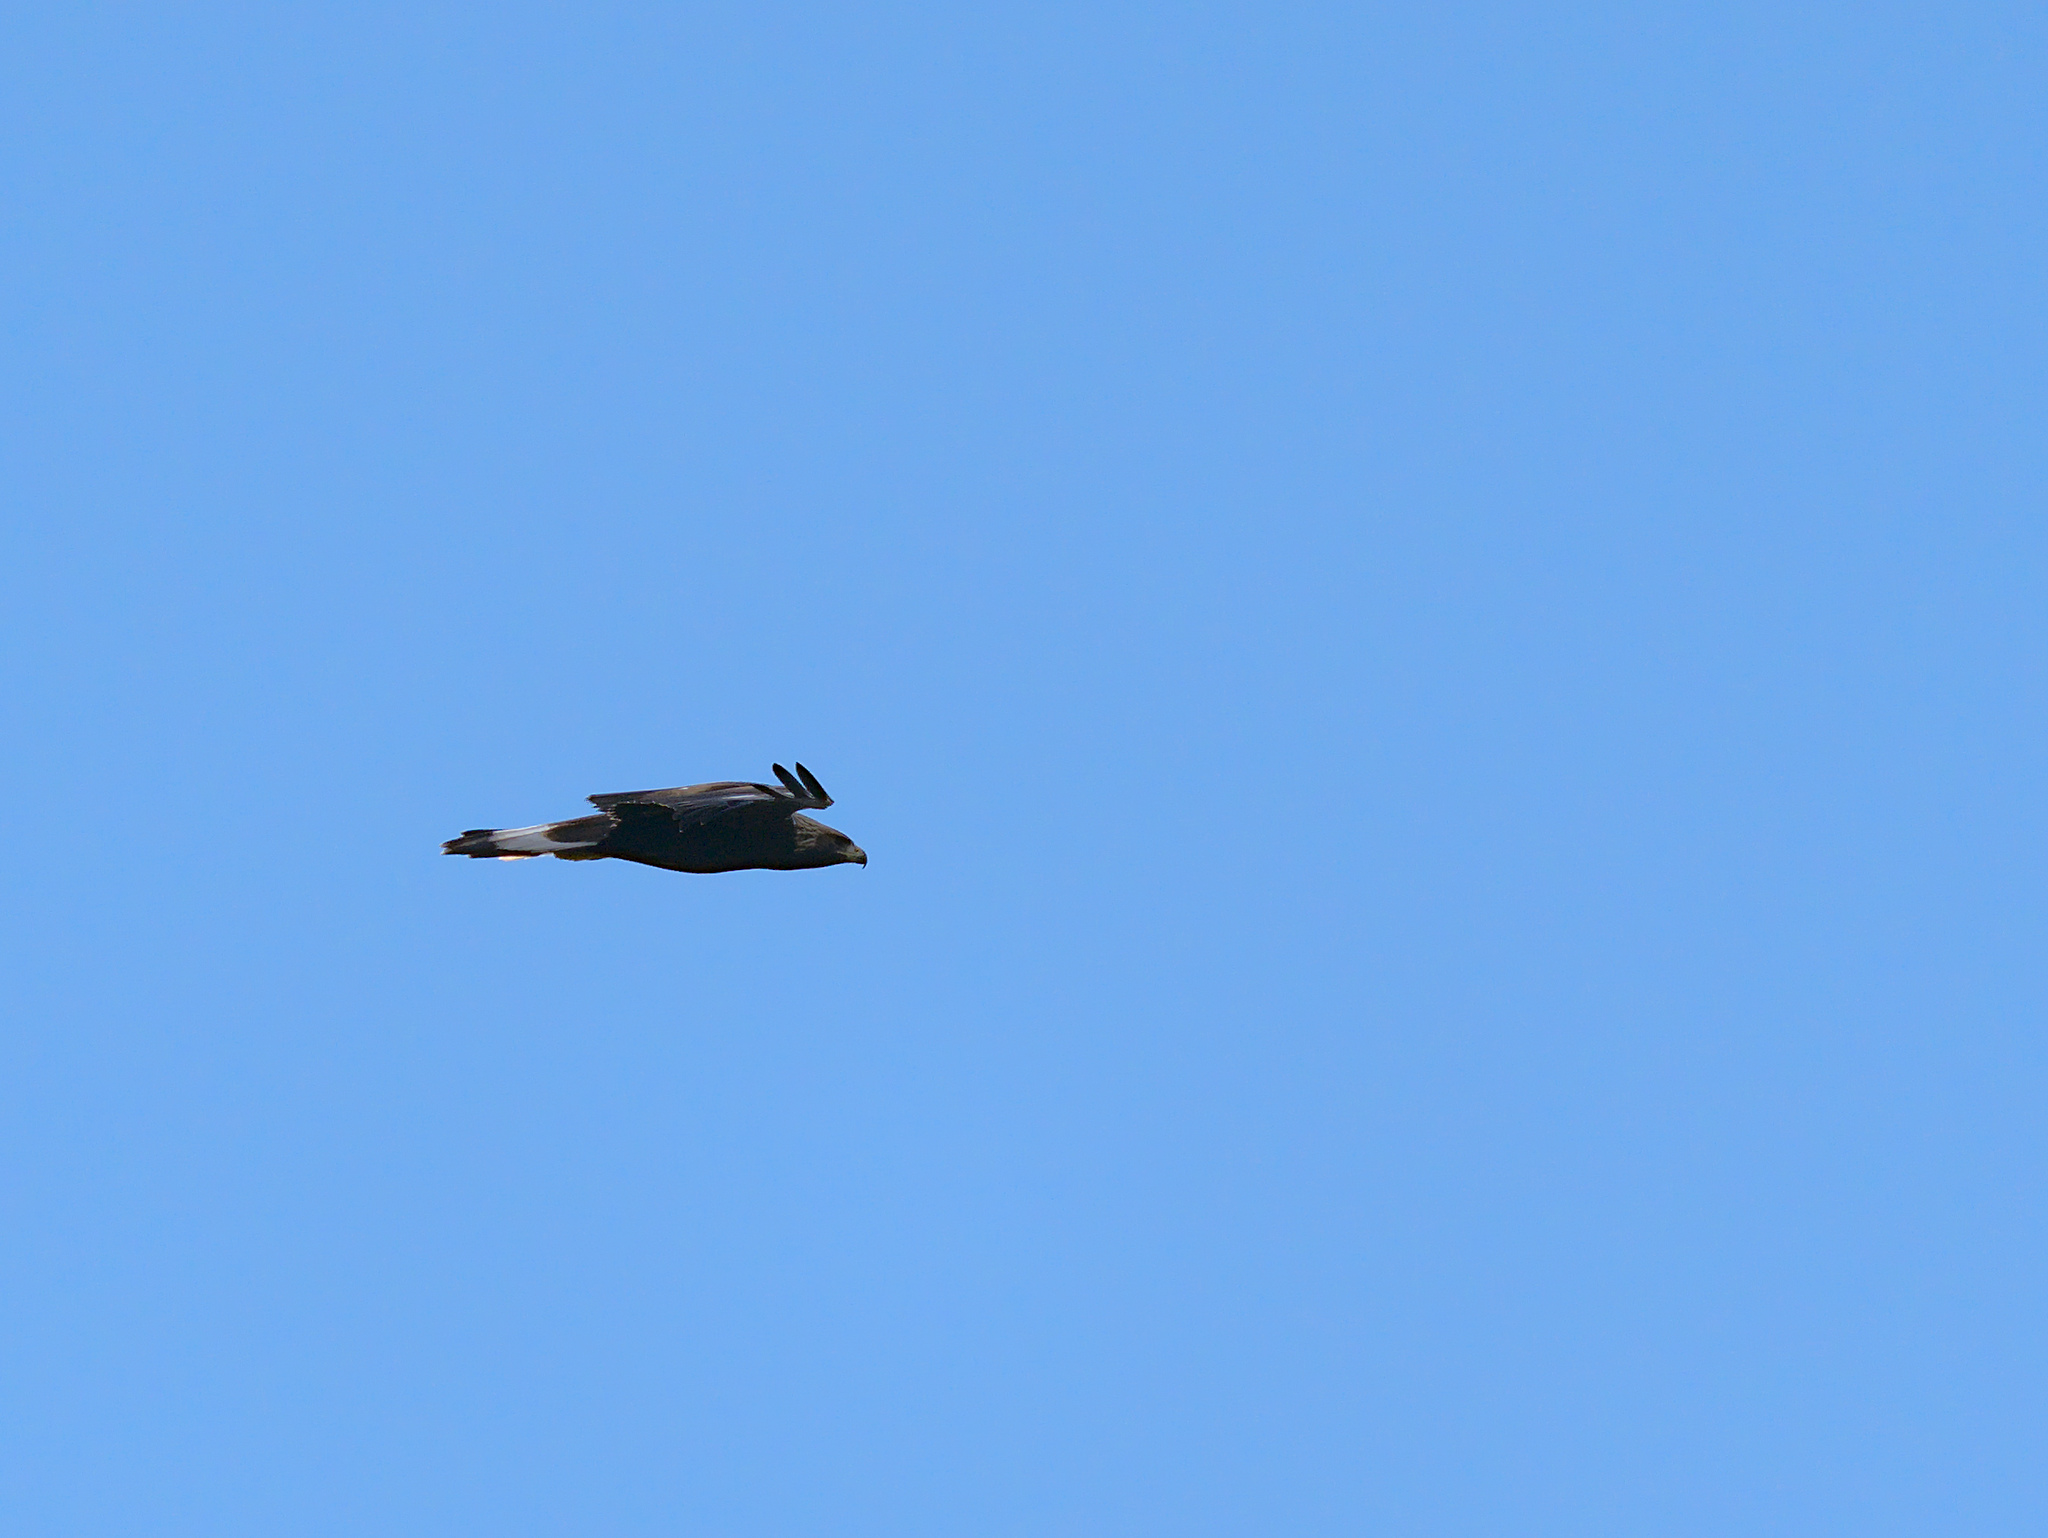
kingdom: Animalia
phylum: Chordata
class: Aves
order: Accipitriformes
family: Accipitridae
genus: Aquila
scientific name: Aquila chrysaetos
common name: Golden eagle
